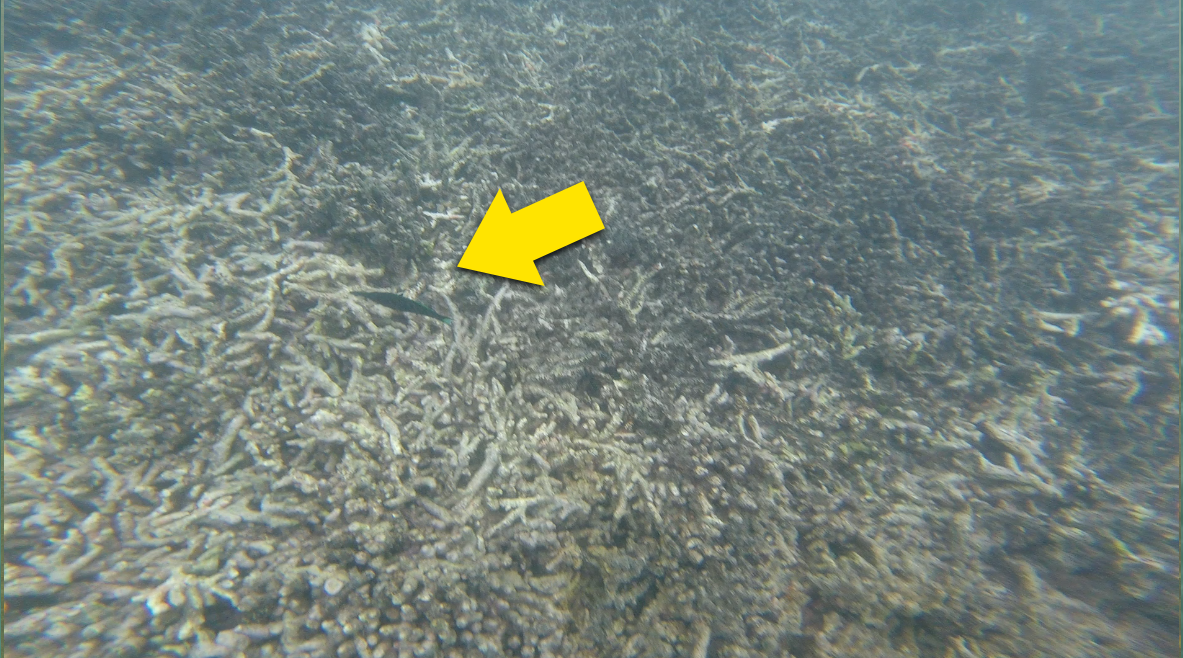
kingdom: Animalia
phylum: Chordata
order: Perciformes
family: Labridae
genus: Gomphosus
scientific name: Gomphosus caeruleus
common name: Bird wrasse
